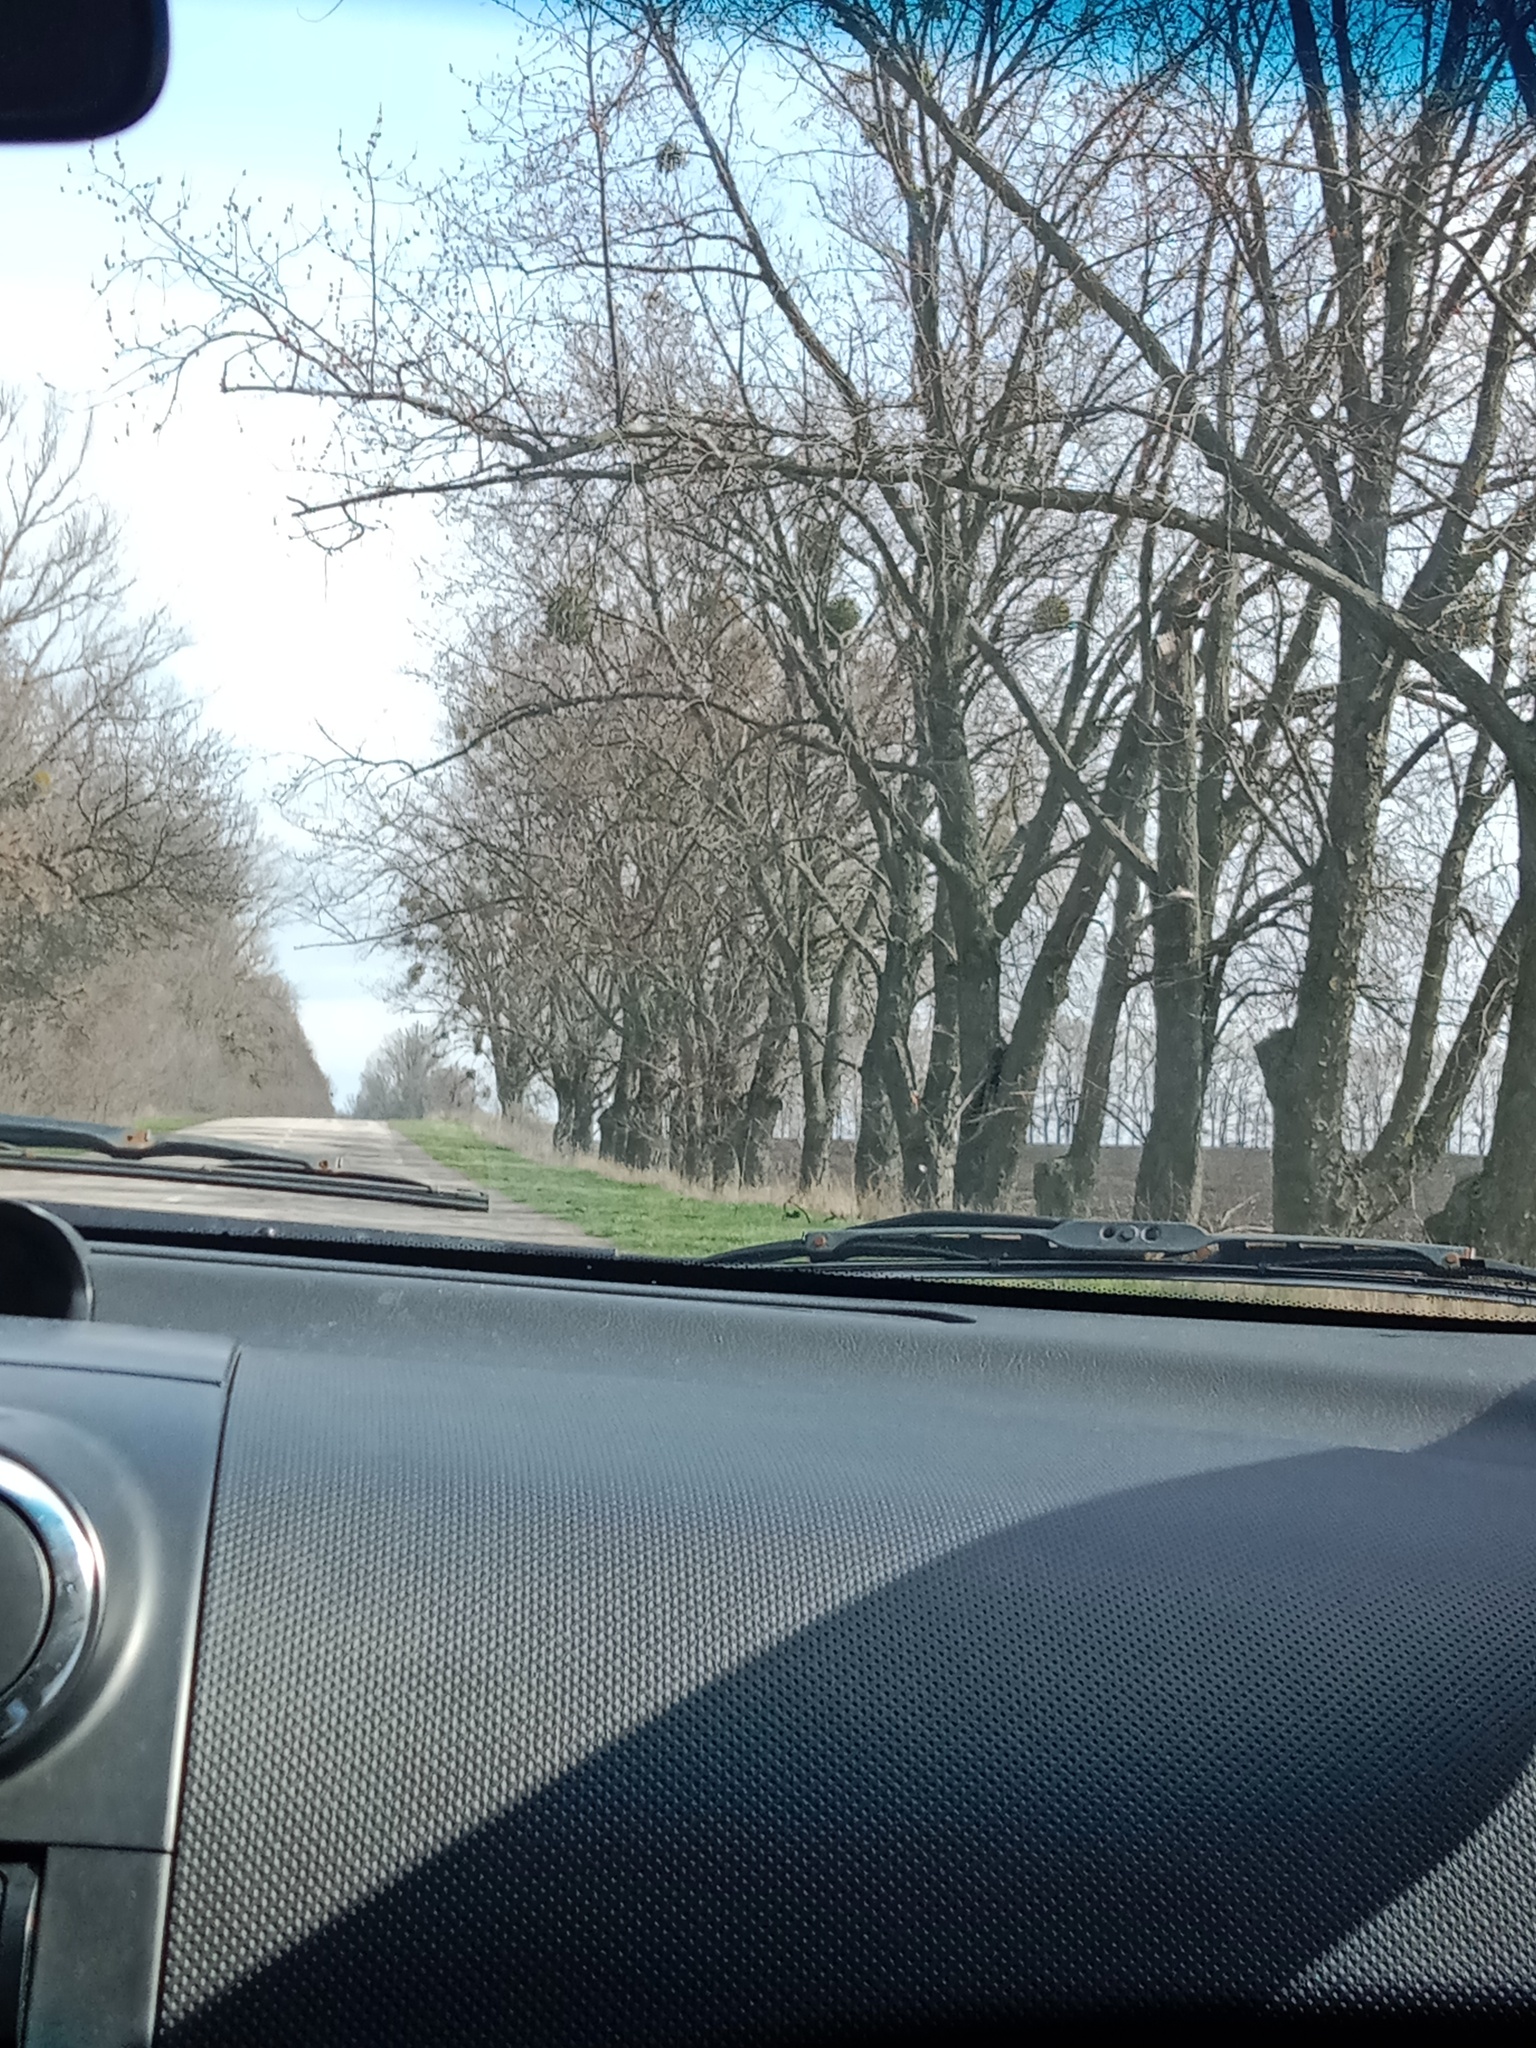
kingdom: Plantae
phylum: Tracheophyta
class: Magnoliopsida
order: Santalales
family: Viscaceae
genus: Viscum
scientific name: Viscum album
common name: Mistletoe
